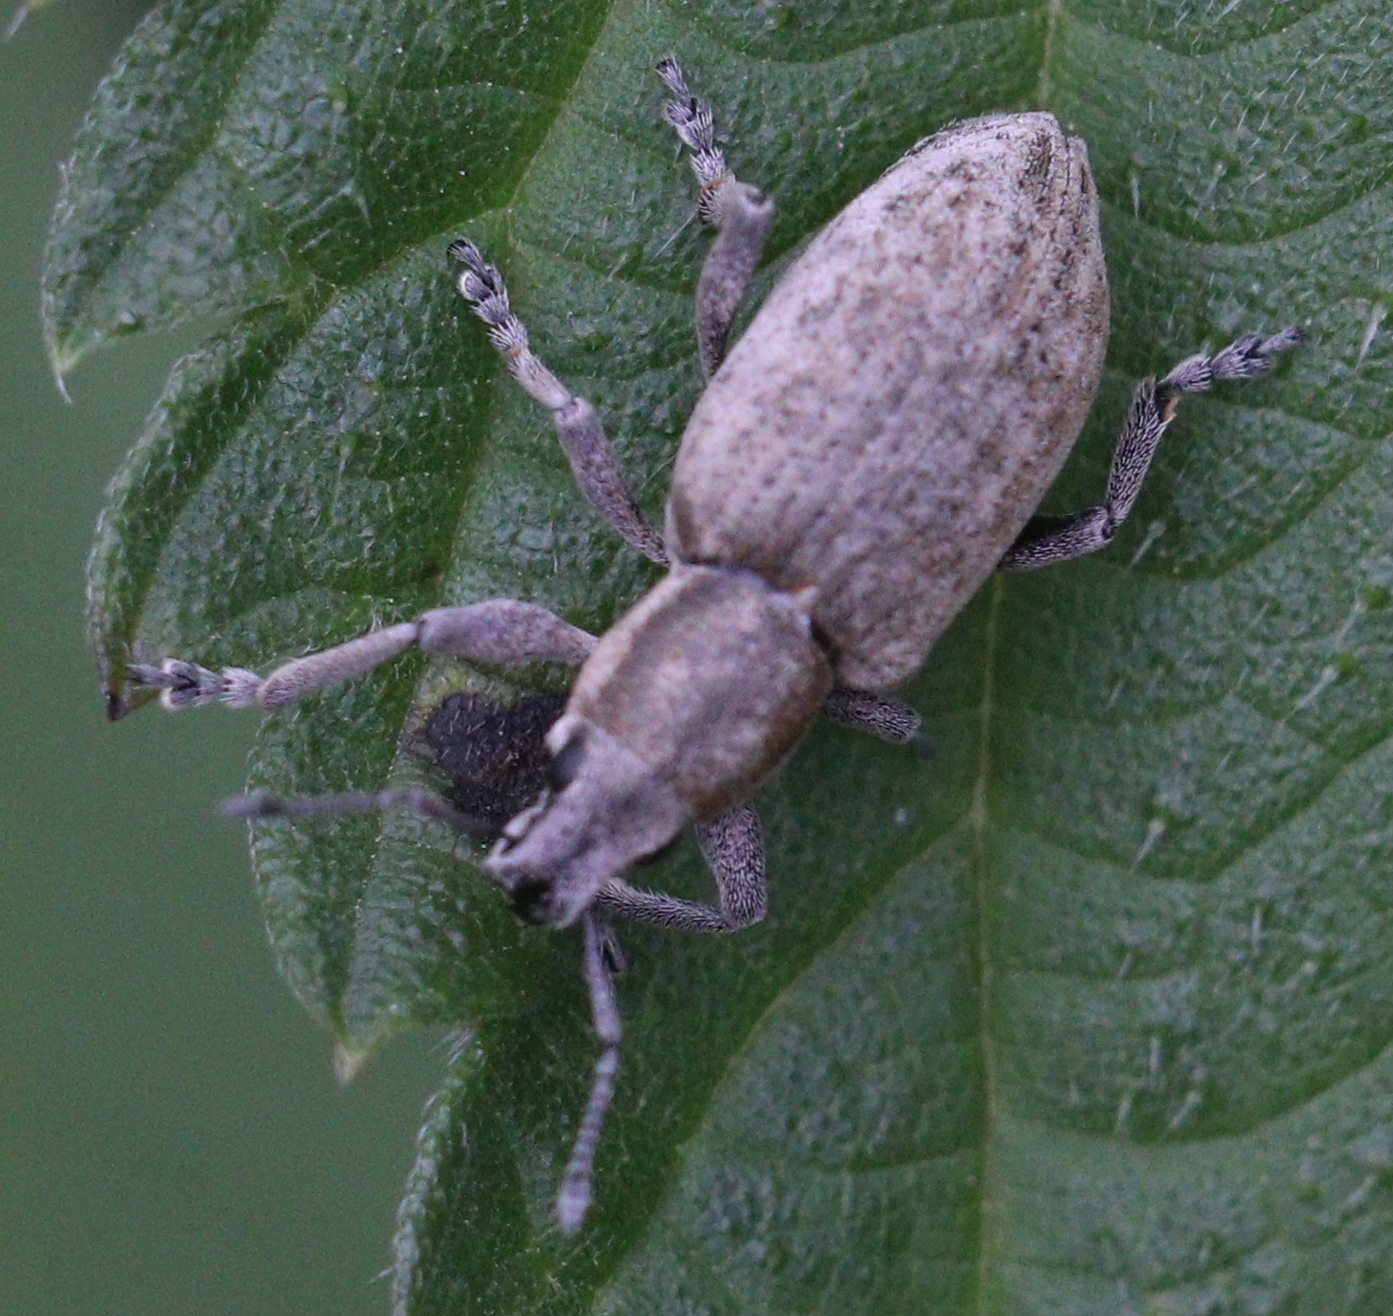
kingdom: Animalia
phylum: Arthropoda
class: Insecta
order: Coleoptera
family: Curculionidae
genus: Tanymecus
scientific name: Tanymecus palliatus
